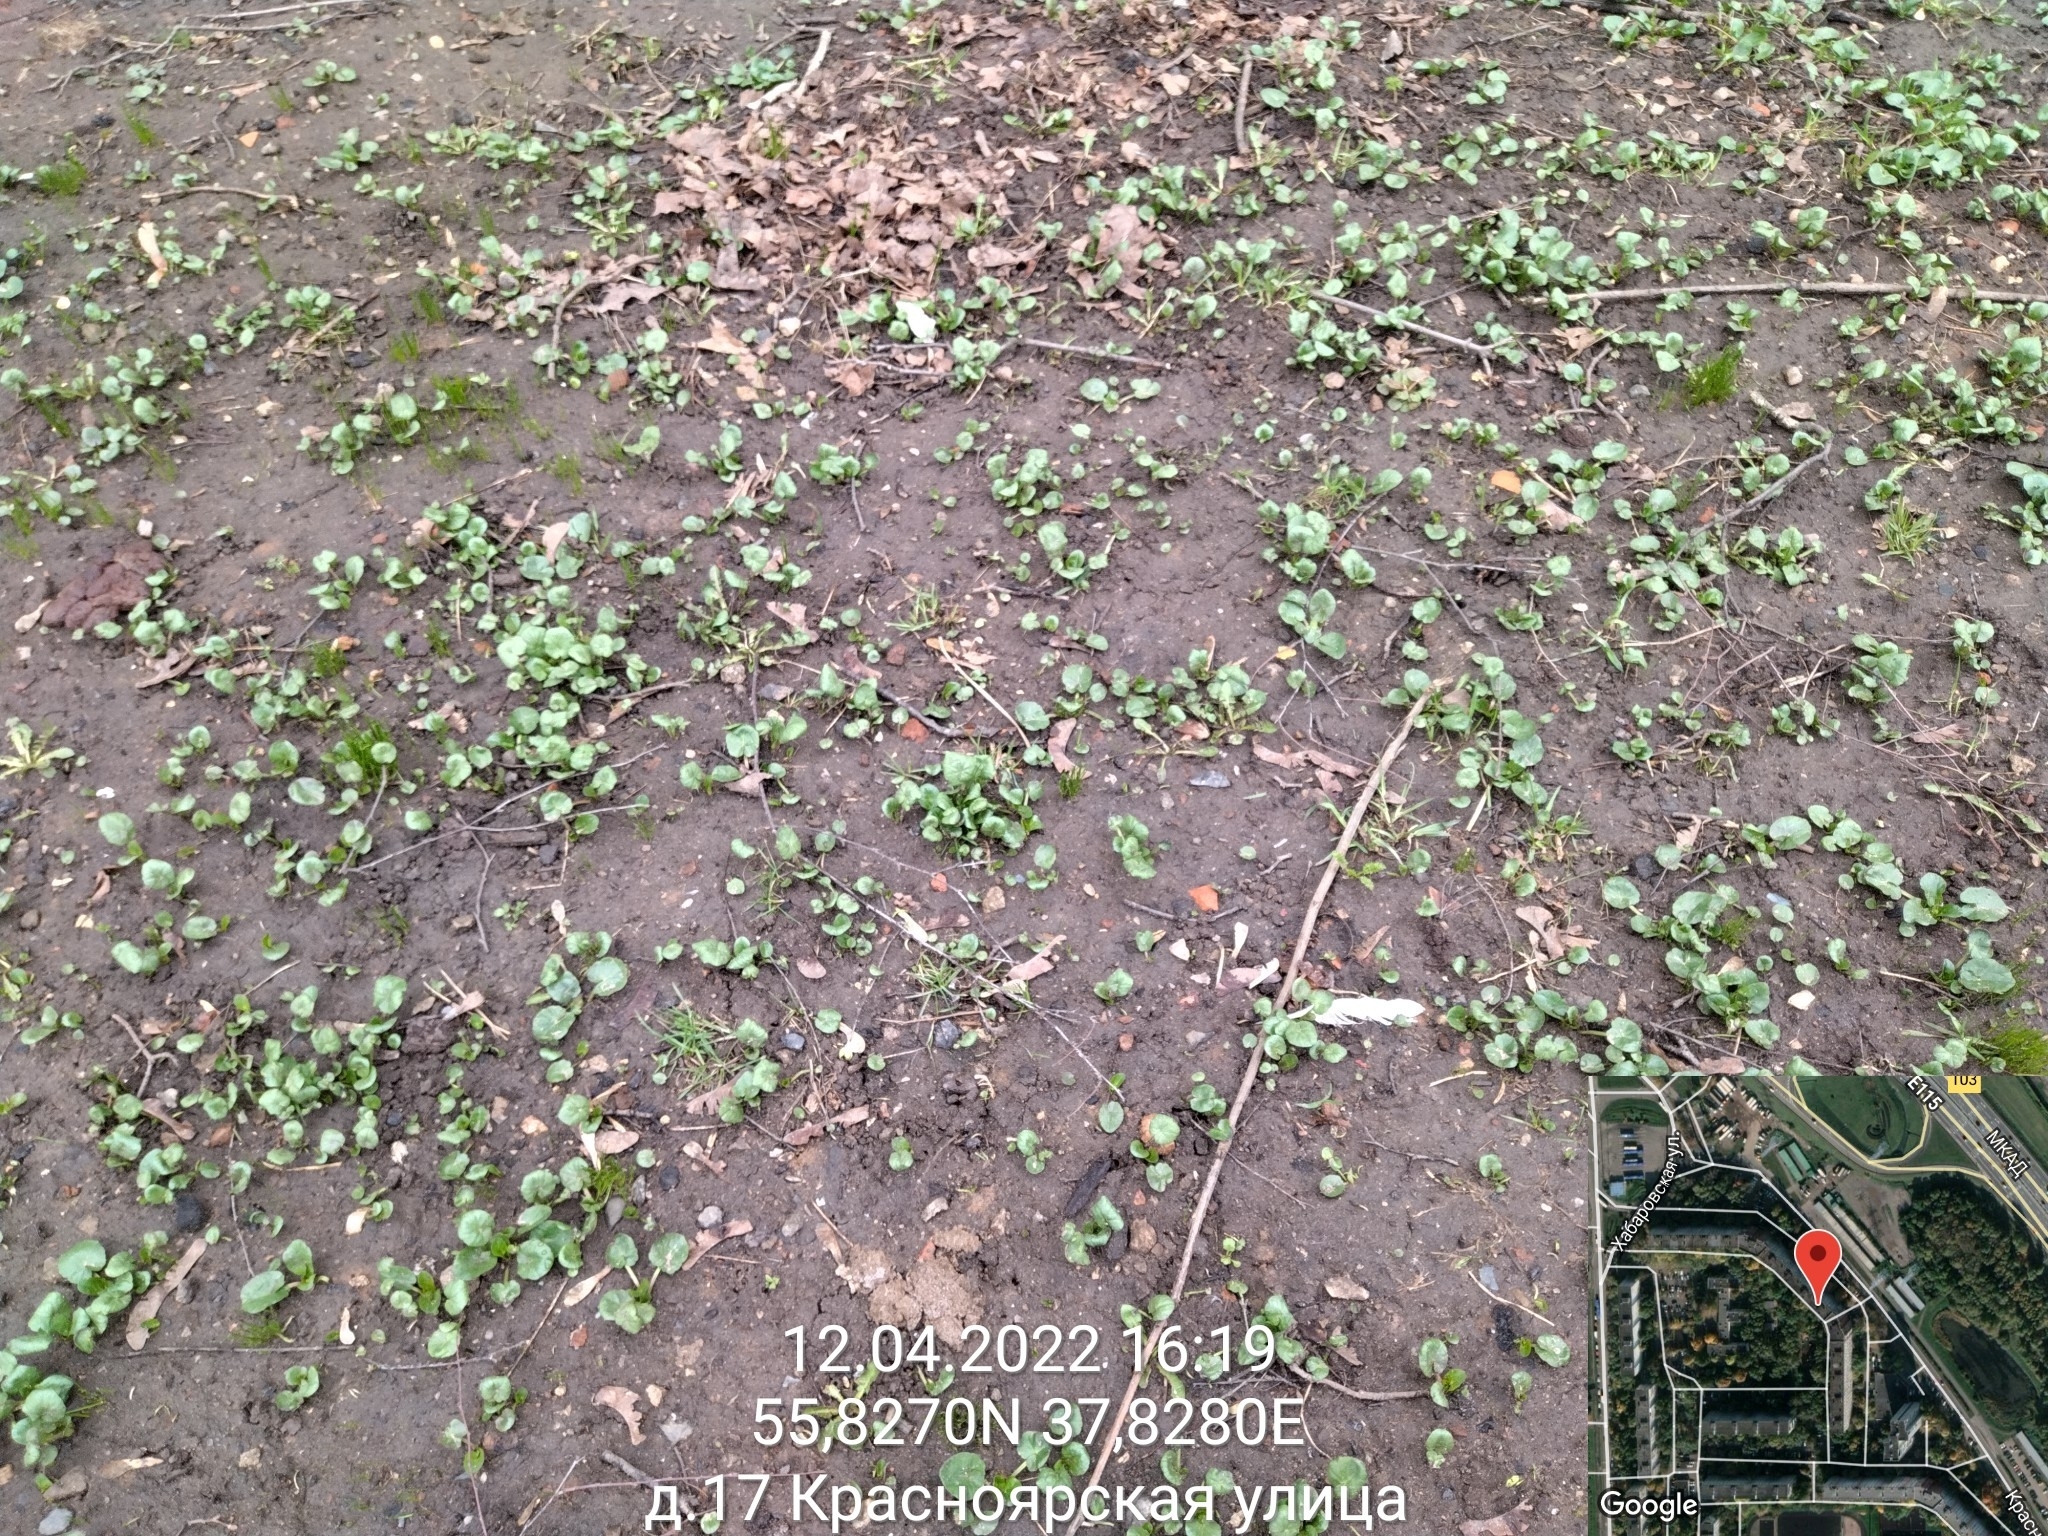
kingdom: Plantae
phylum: Tracheophyta
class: Magnoliopsida
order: Ranunculales
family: Ranunculaceae
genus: Ficaria
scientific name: Ficaria verna
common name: Lesser celandine
